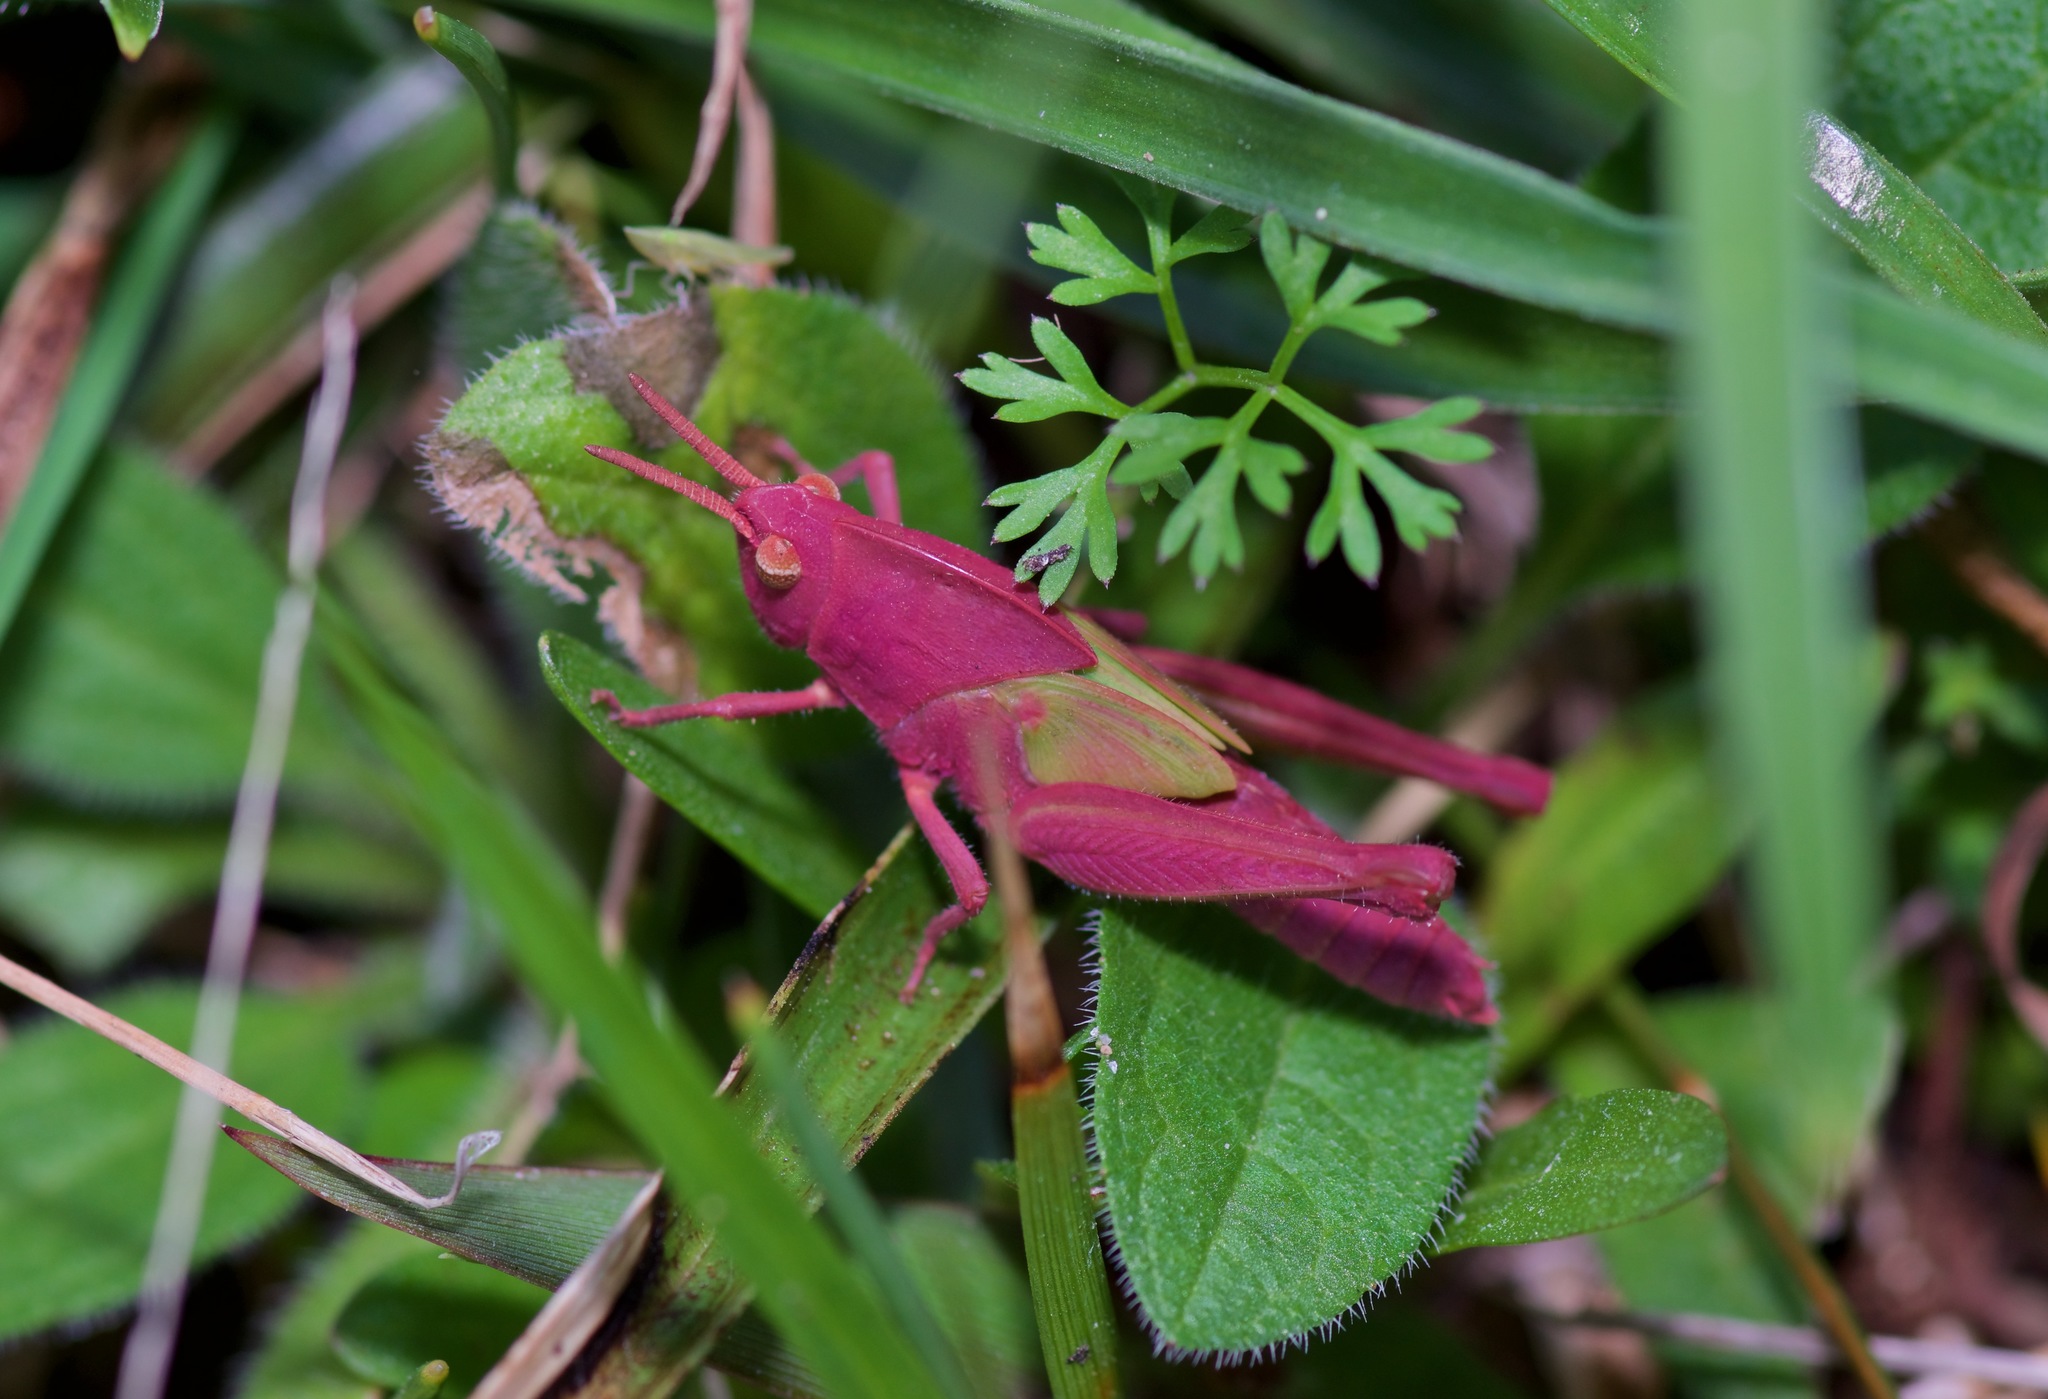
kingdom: Animalia
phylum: Arthropoda
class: Insecta
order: Orthoptera
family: Acrididae
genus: Chortophaga
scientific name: Chortophaga viridifasciata
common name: Green-striped grasshopper
